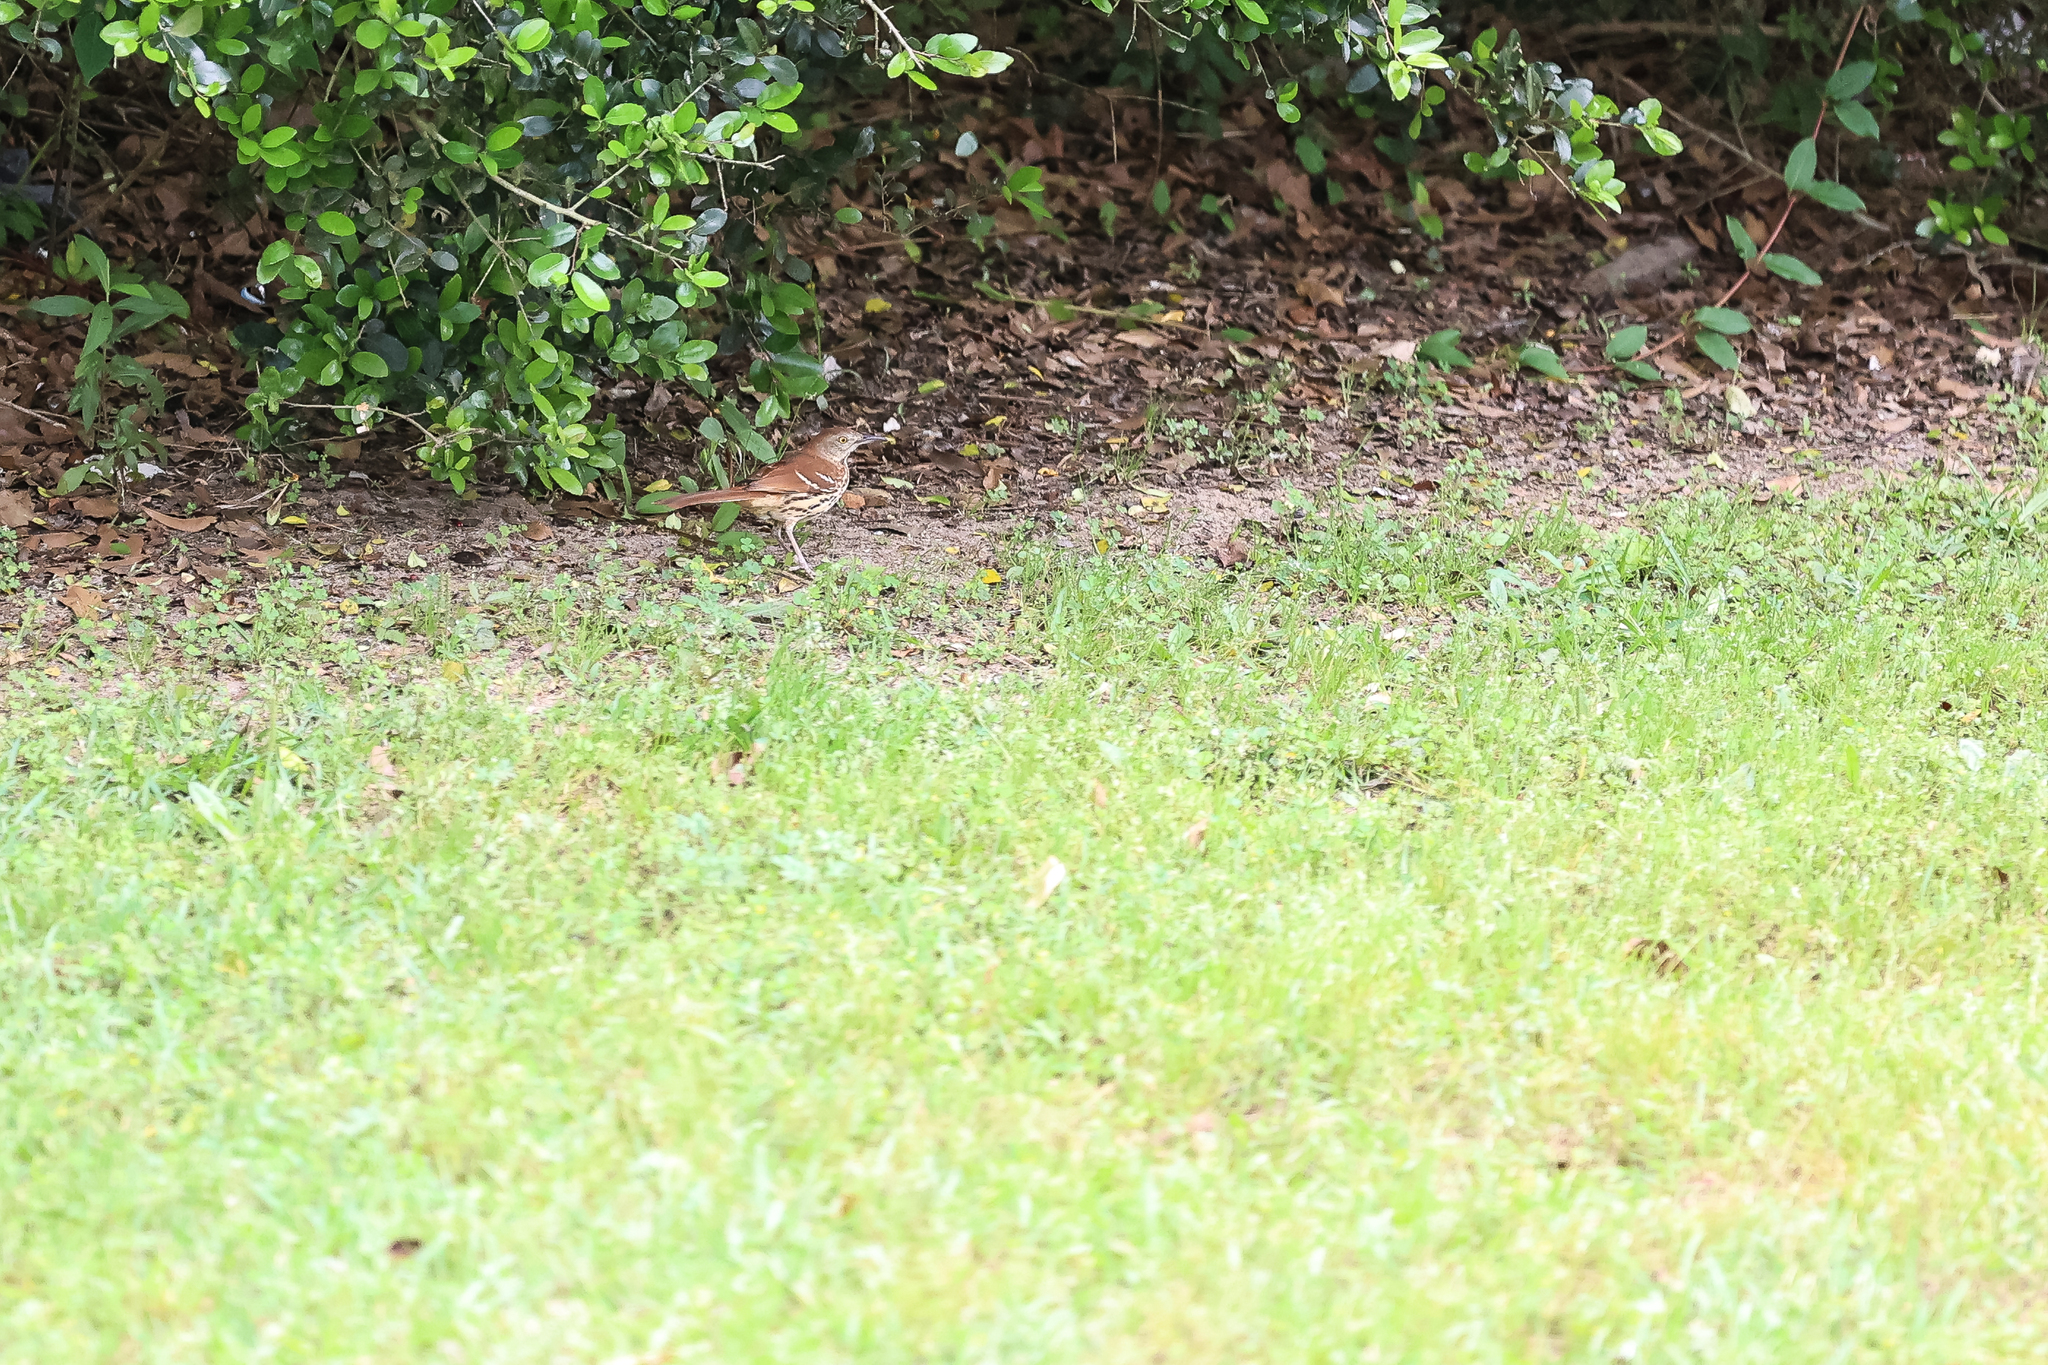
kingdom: Animalia
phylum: Chordata
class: Aves
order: Passeriformes
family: Mimidae
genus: Toxostoma
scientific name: Toxostoma rufum
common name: Brown thrasher
